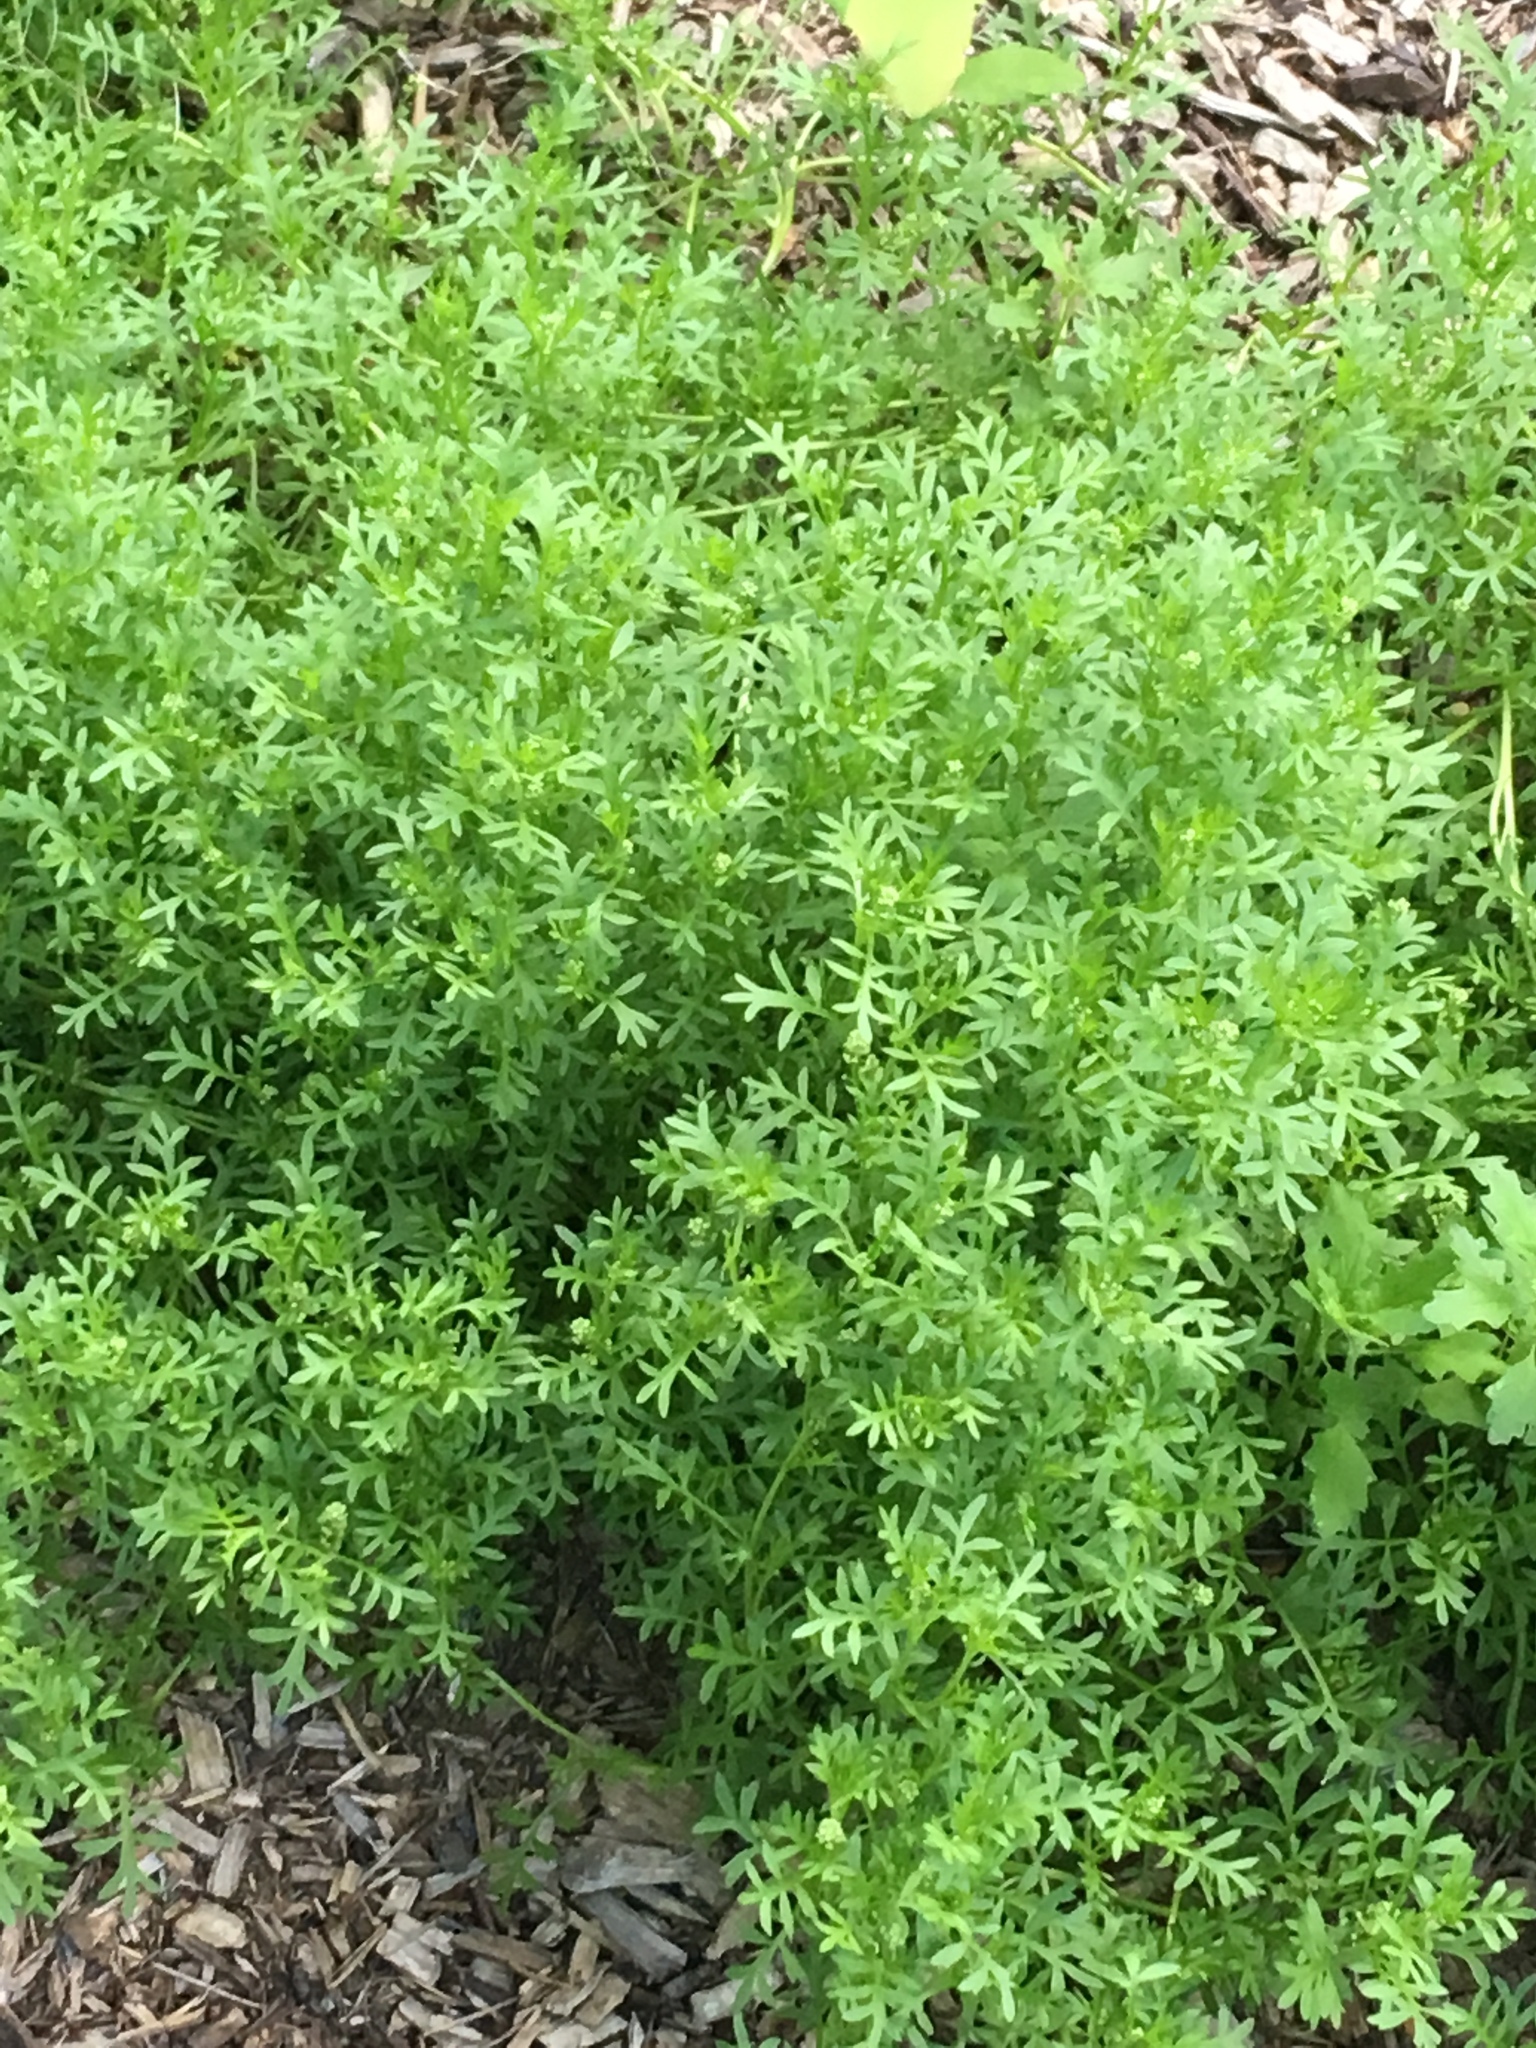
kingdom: Plantae
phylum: Tracheophyta
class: Magnoliopsida
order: Brassicales
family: Brassicaceae
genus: Lepidium
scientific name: Lepidium didymum
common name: Lesser swinecress
